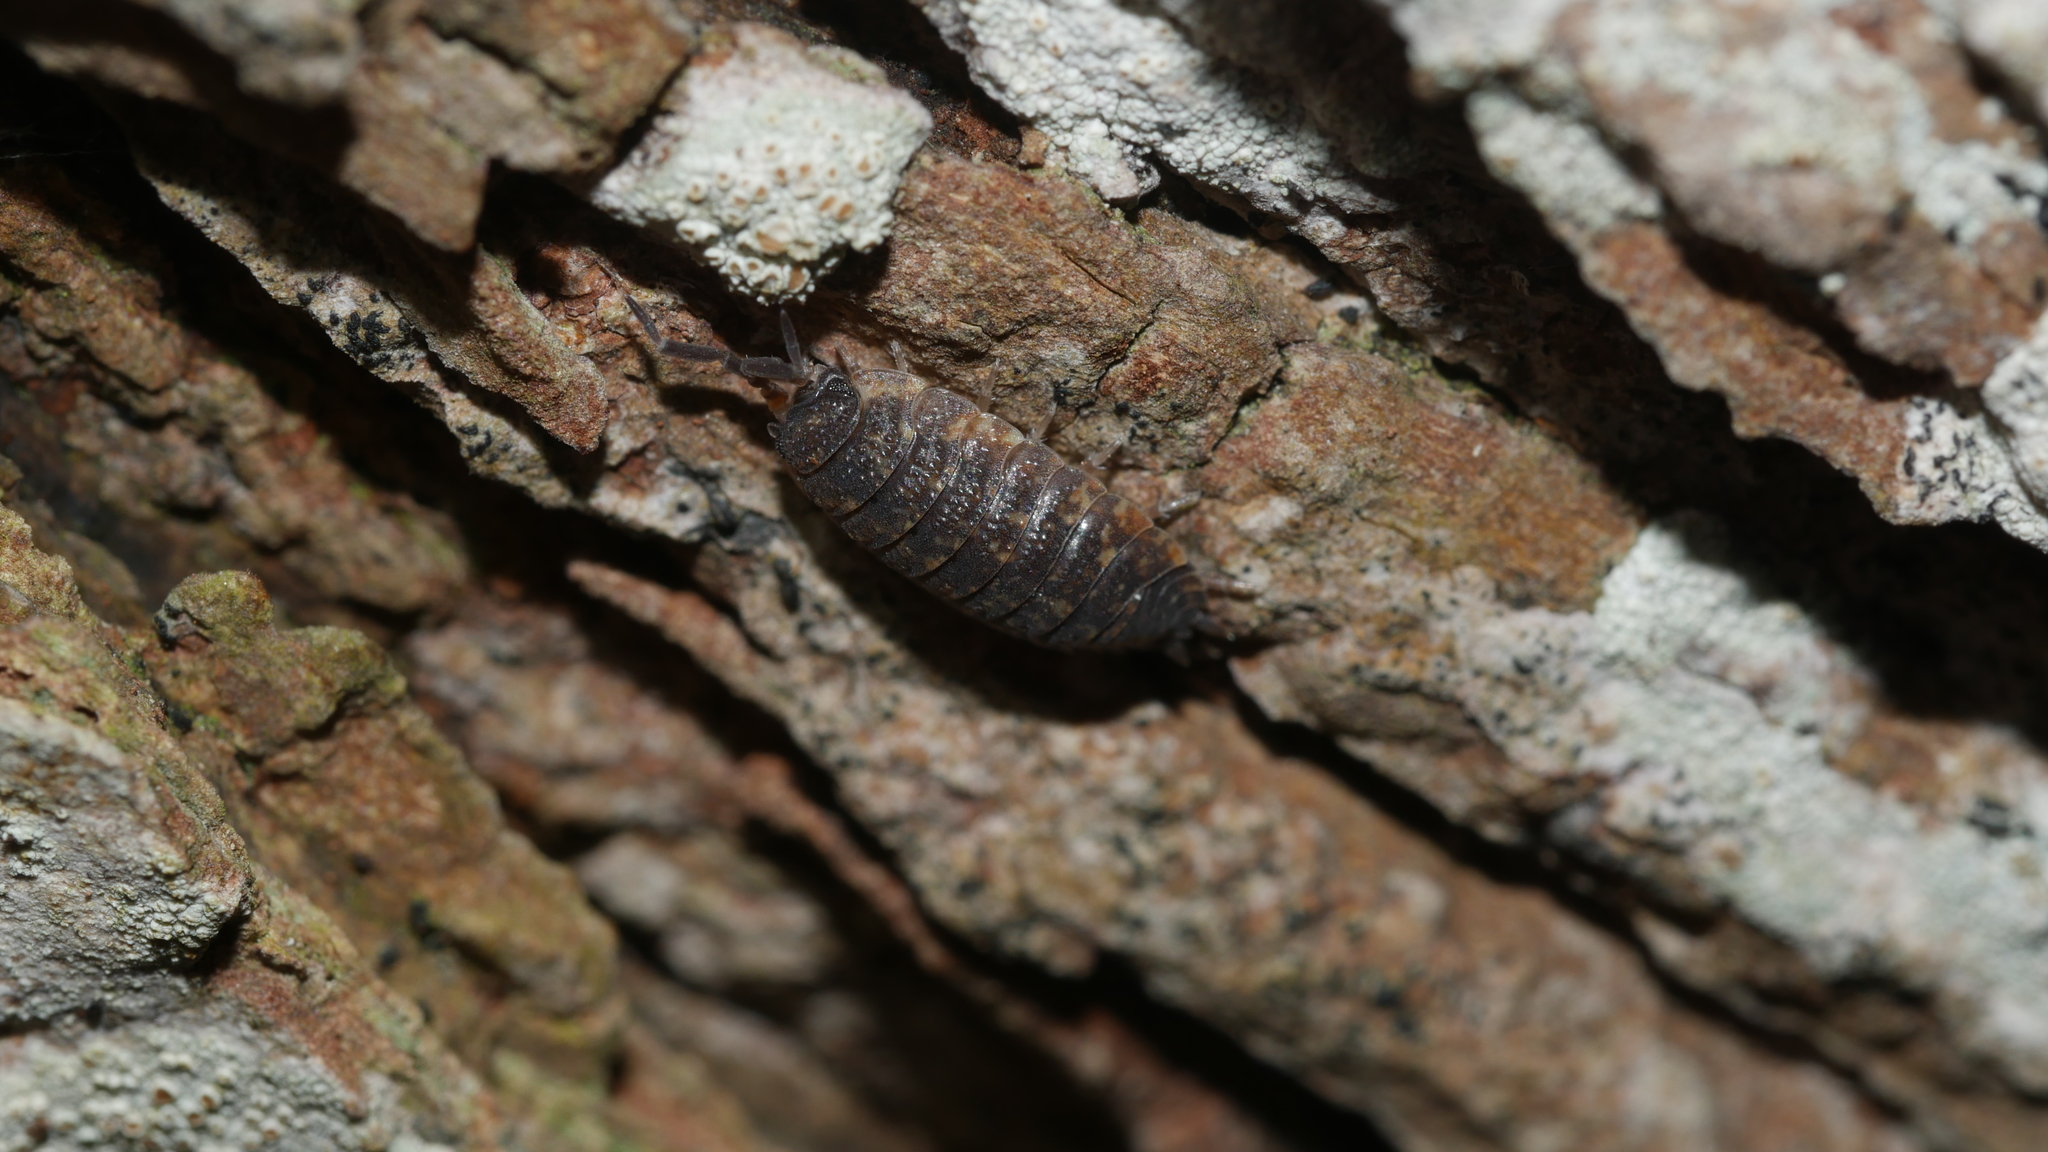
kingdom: Animalia
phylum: Arthropoda
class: Malacostraca
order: Isopoda
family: Porcellionidae
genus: Porcellio
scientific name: Porcellio scaber
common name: Common rough woodlouse
